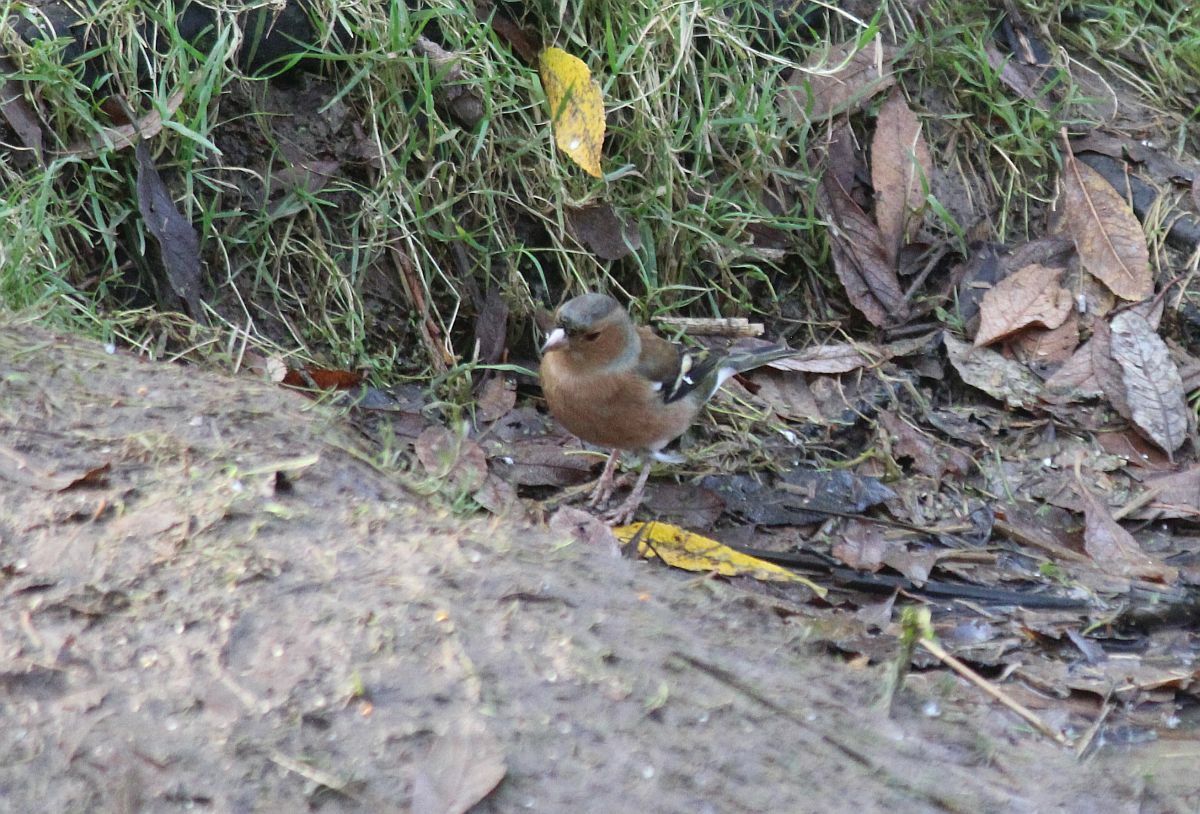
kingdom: Animalia
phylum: Chordata
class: Aves
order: Passeriformes
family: Fringillidae
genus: Fringilla
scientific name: Fringilla coelebs
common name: Common chaffinch
